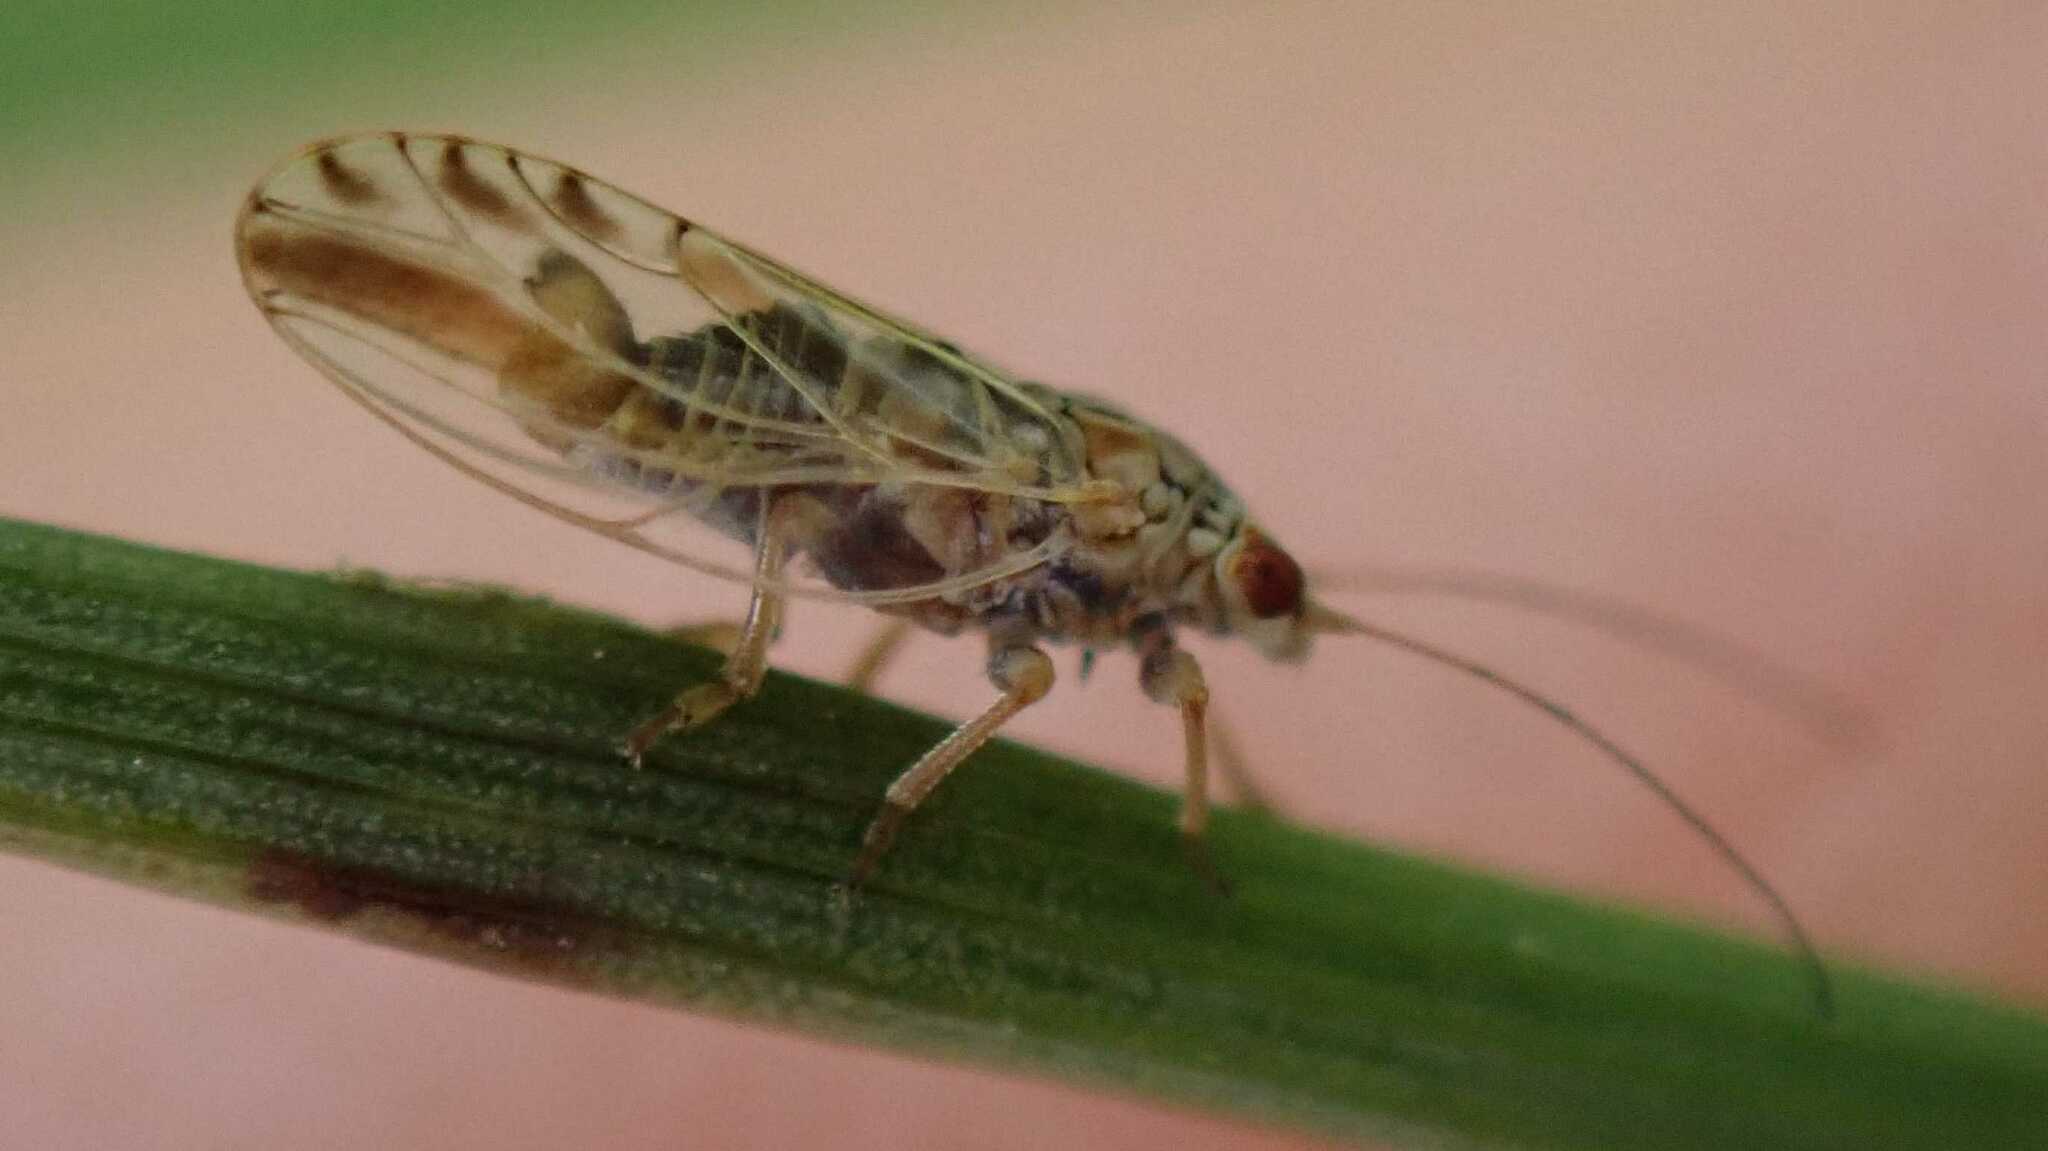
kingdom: Animalia
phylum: Arthropoda
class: Insecta
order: Hemiptera
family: Psyllidae
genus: Arytaina
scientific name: Arytaina genistae
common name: Psyllid
